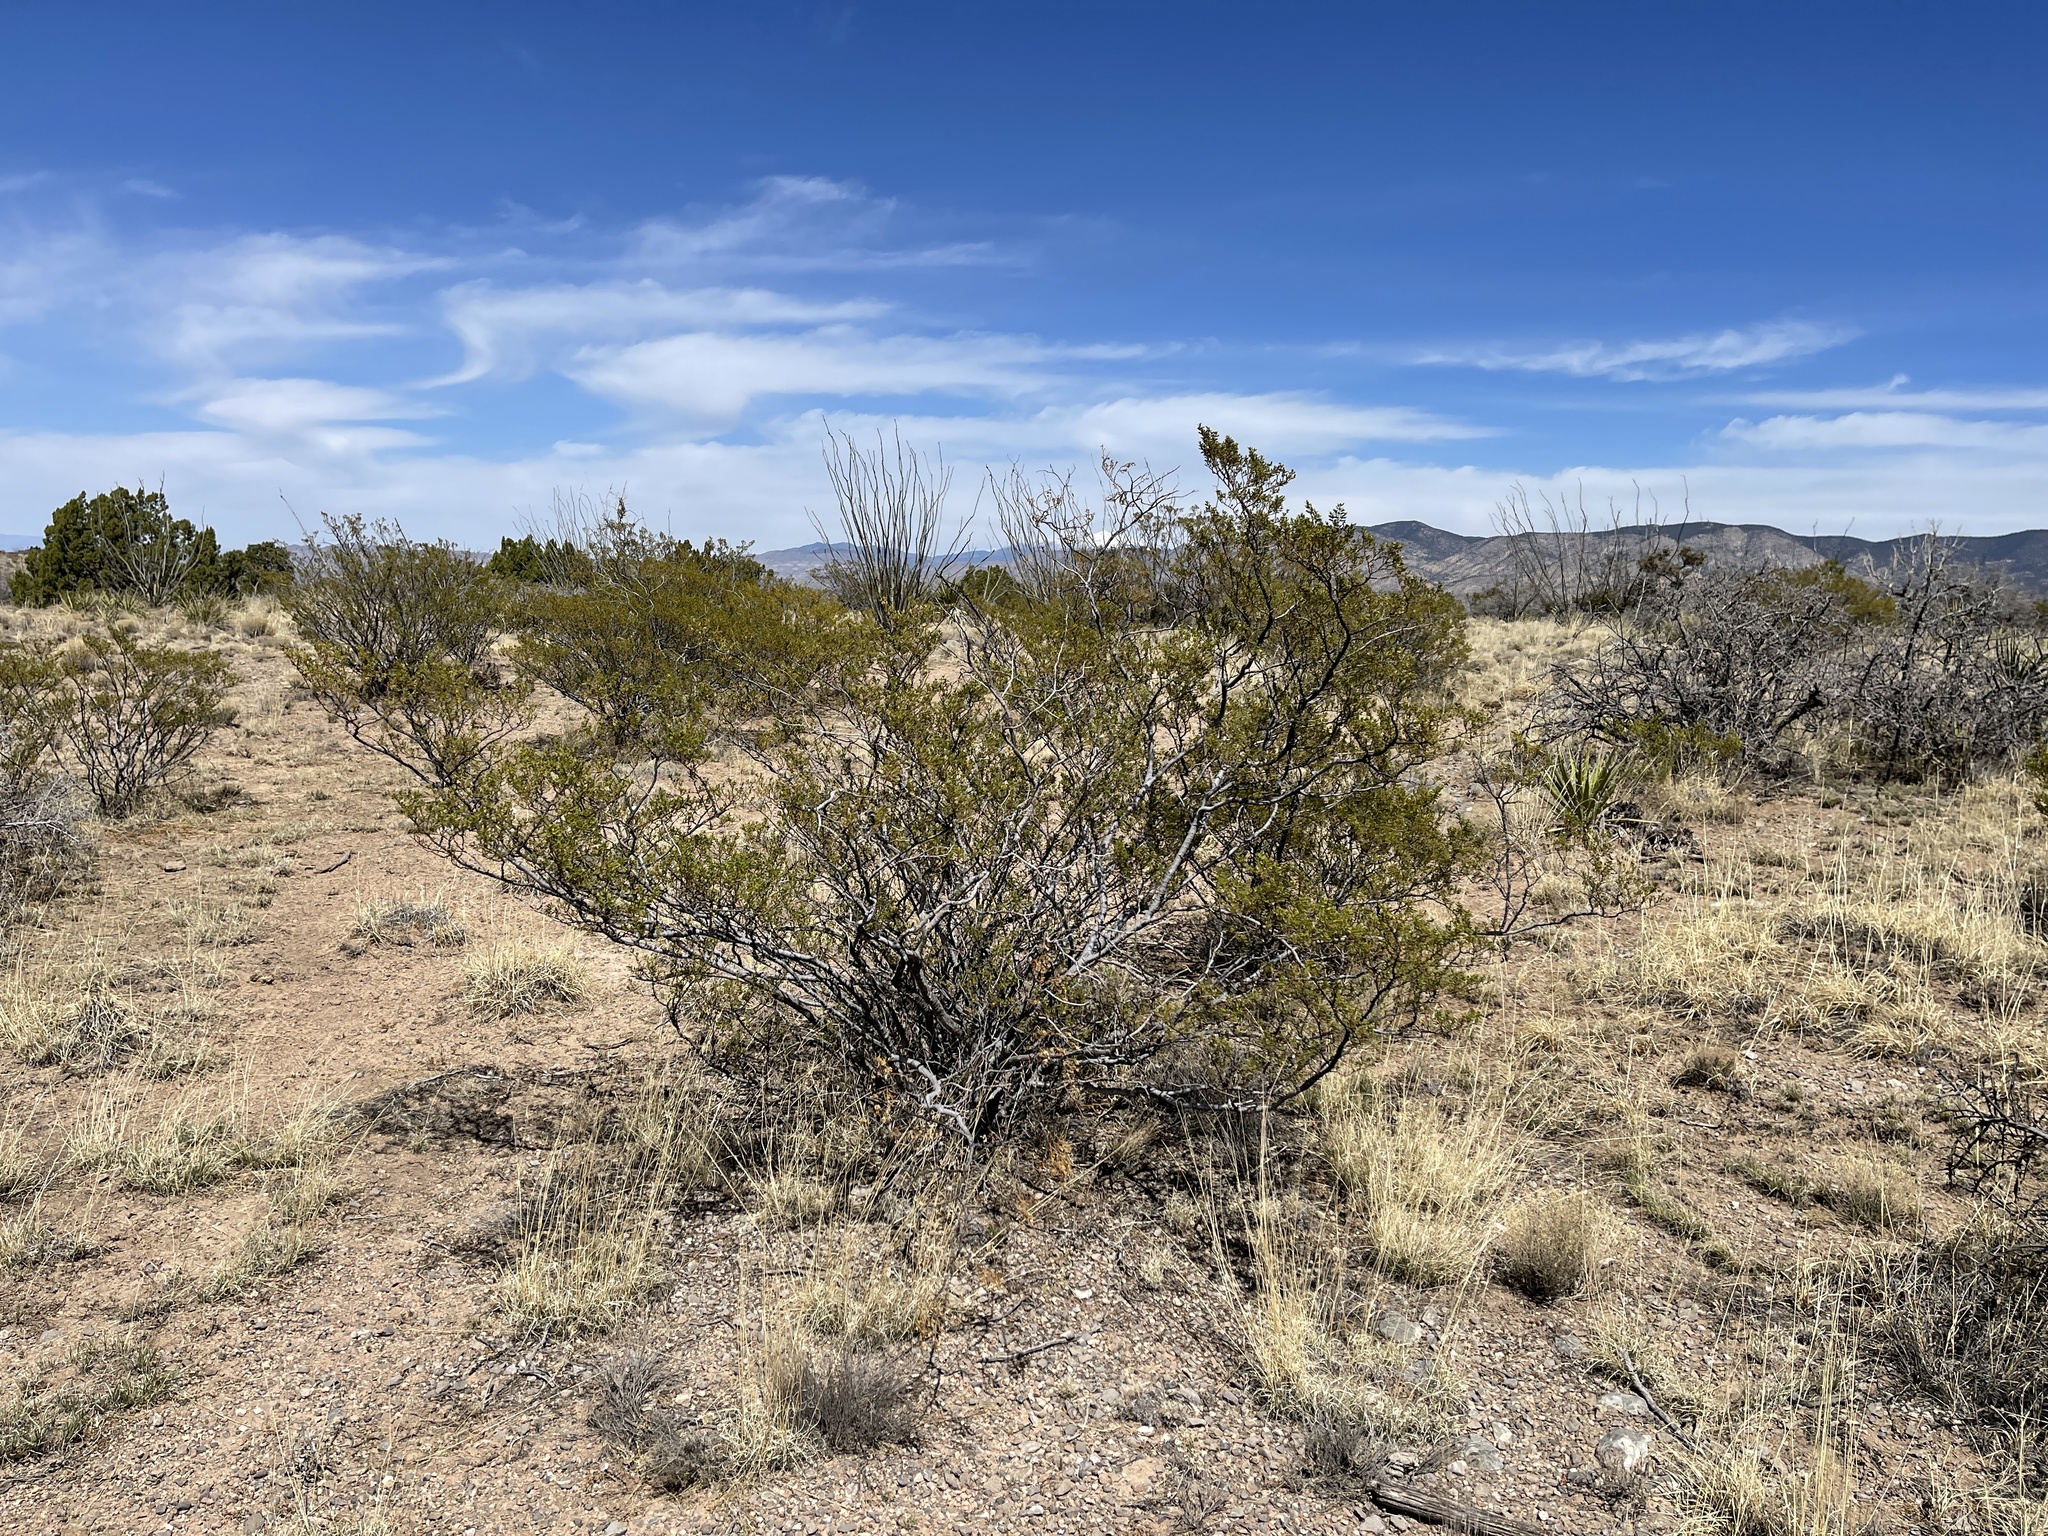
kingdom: Plantae
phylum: Tracheophyta
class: Magnoliopsida
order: Zygophyllales
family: Zygophyllaceae
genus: Larrea
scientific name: Larrea tridentata
